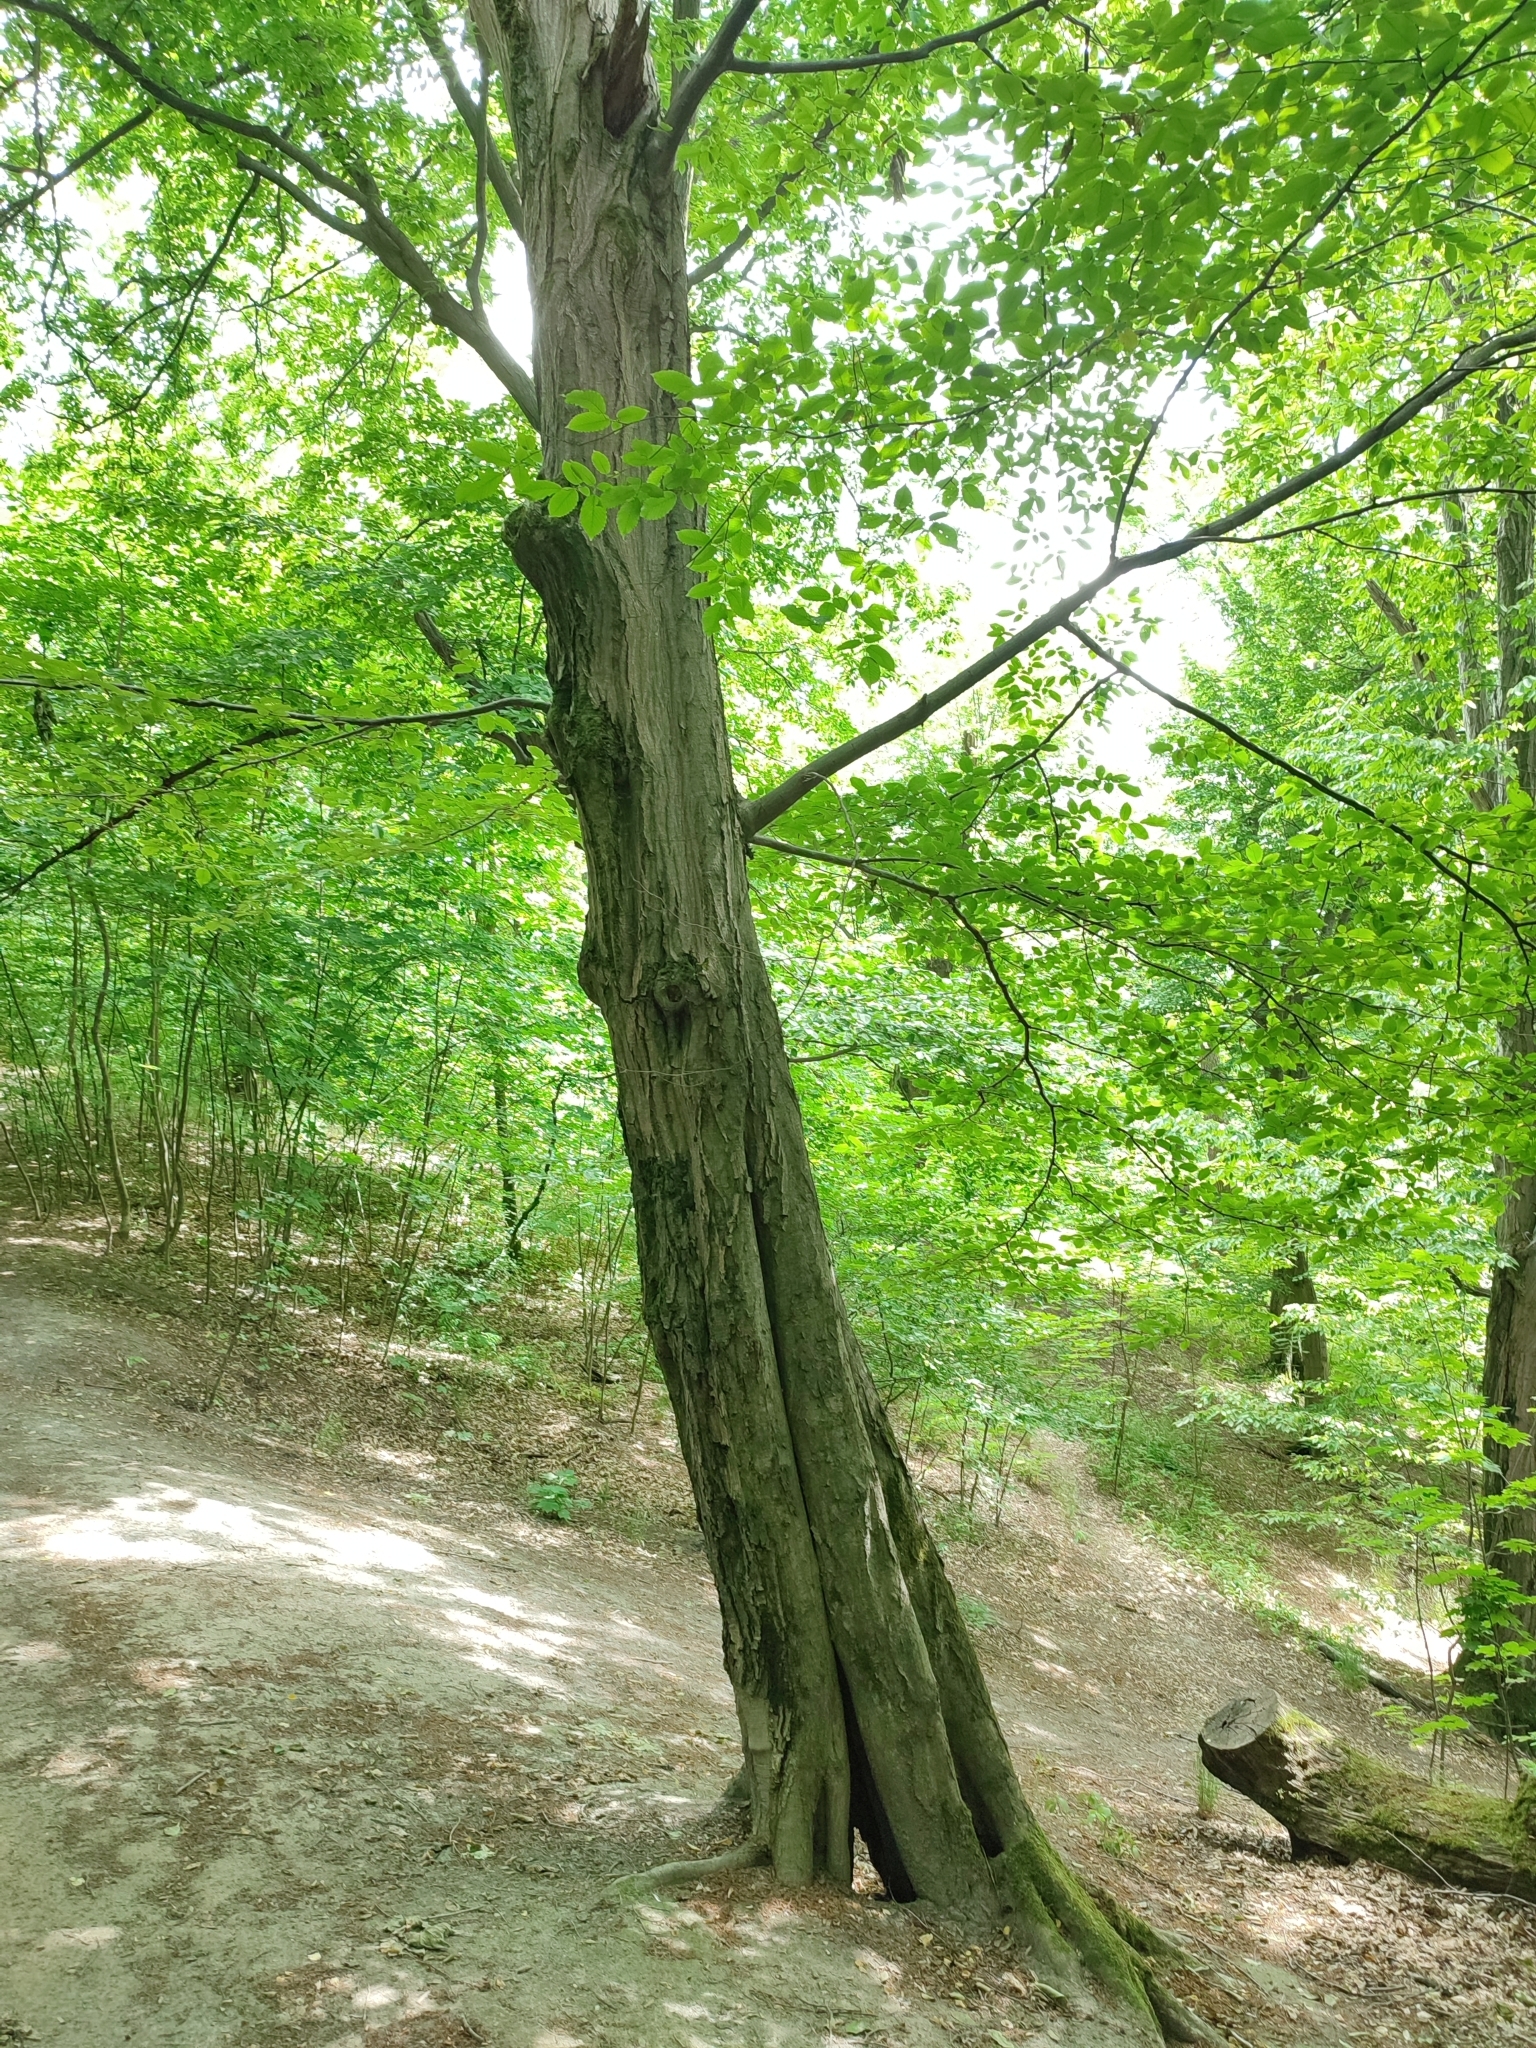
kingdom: Plantae
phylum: Tracheophyta
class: Magnoliopsida
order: Fagales
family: Betulaceae
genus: Carpinus
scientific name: Carpinus betulus
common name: Hornbeam
